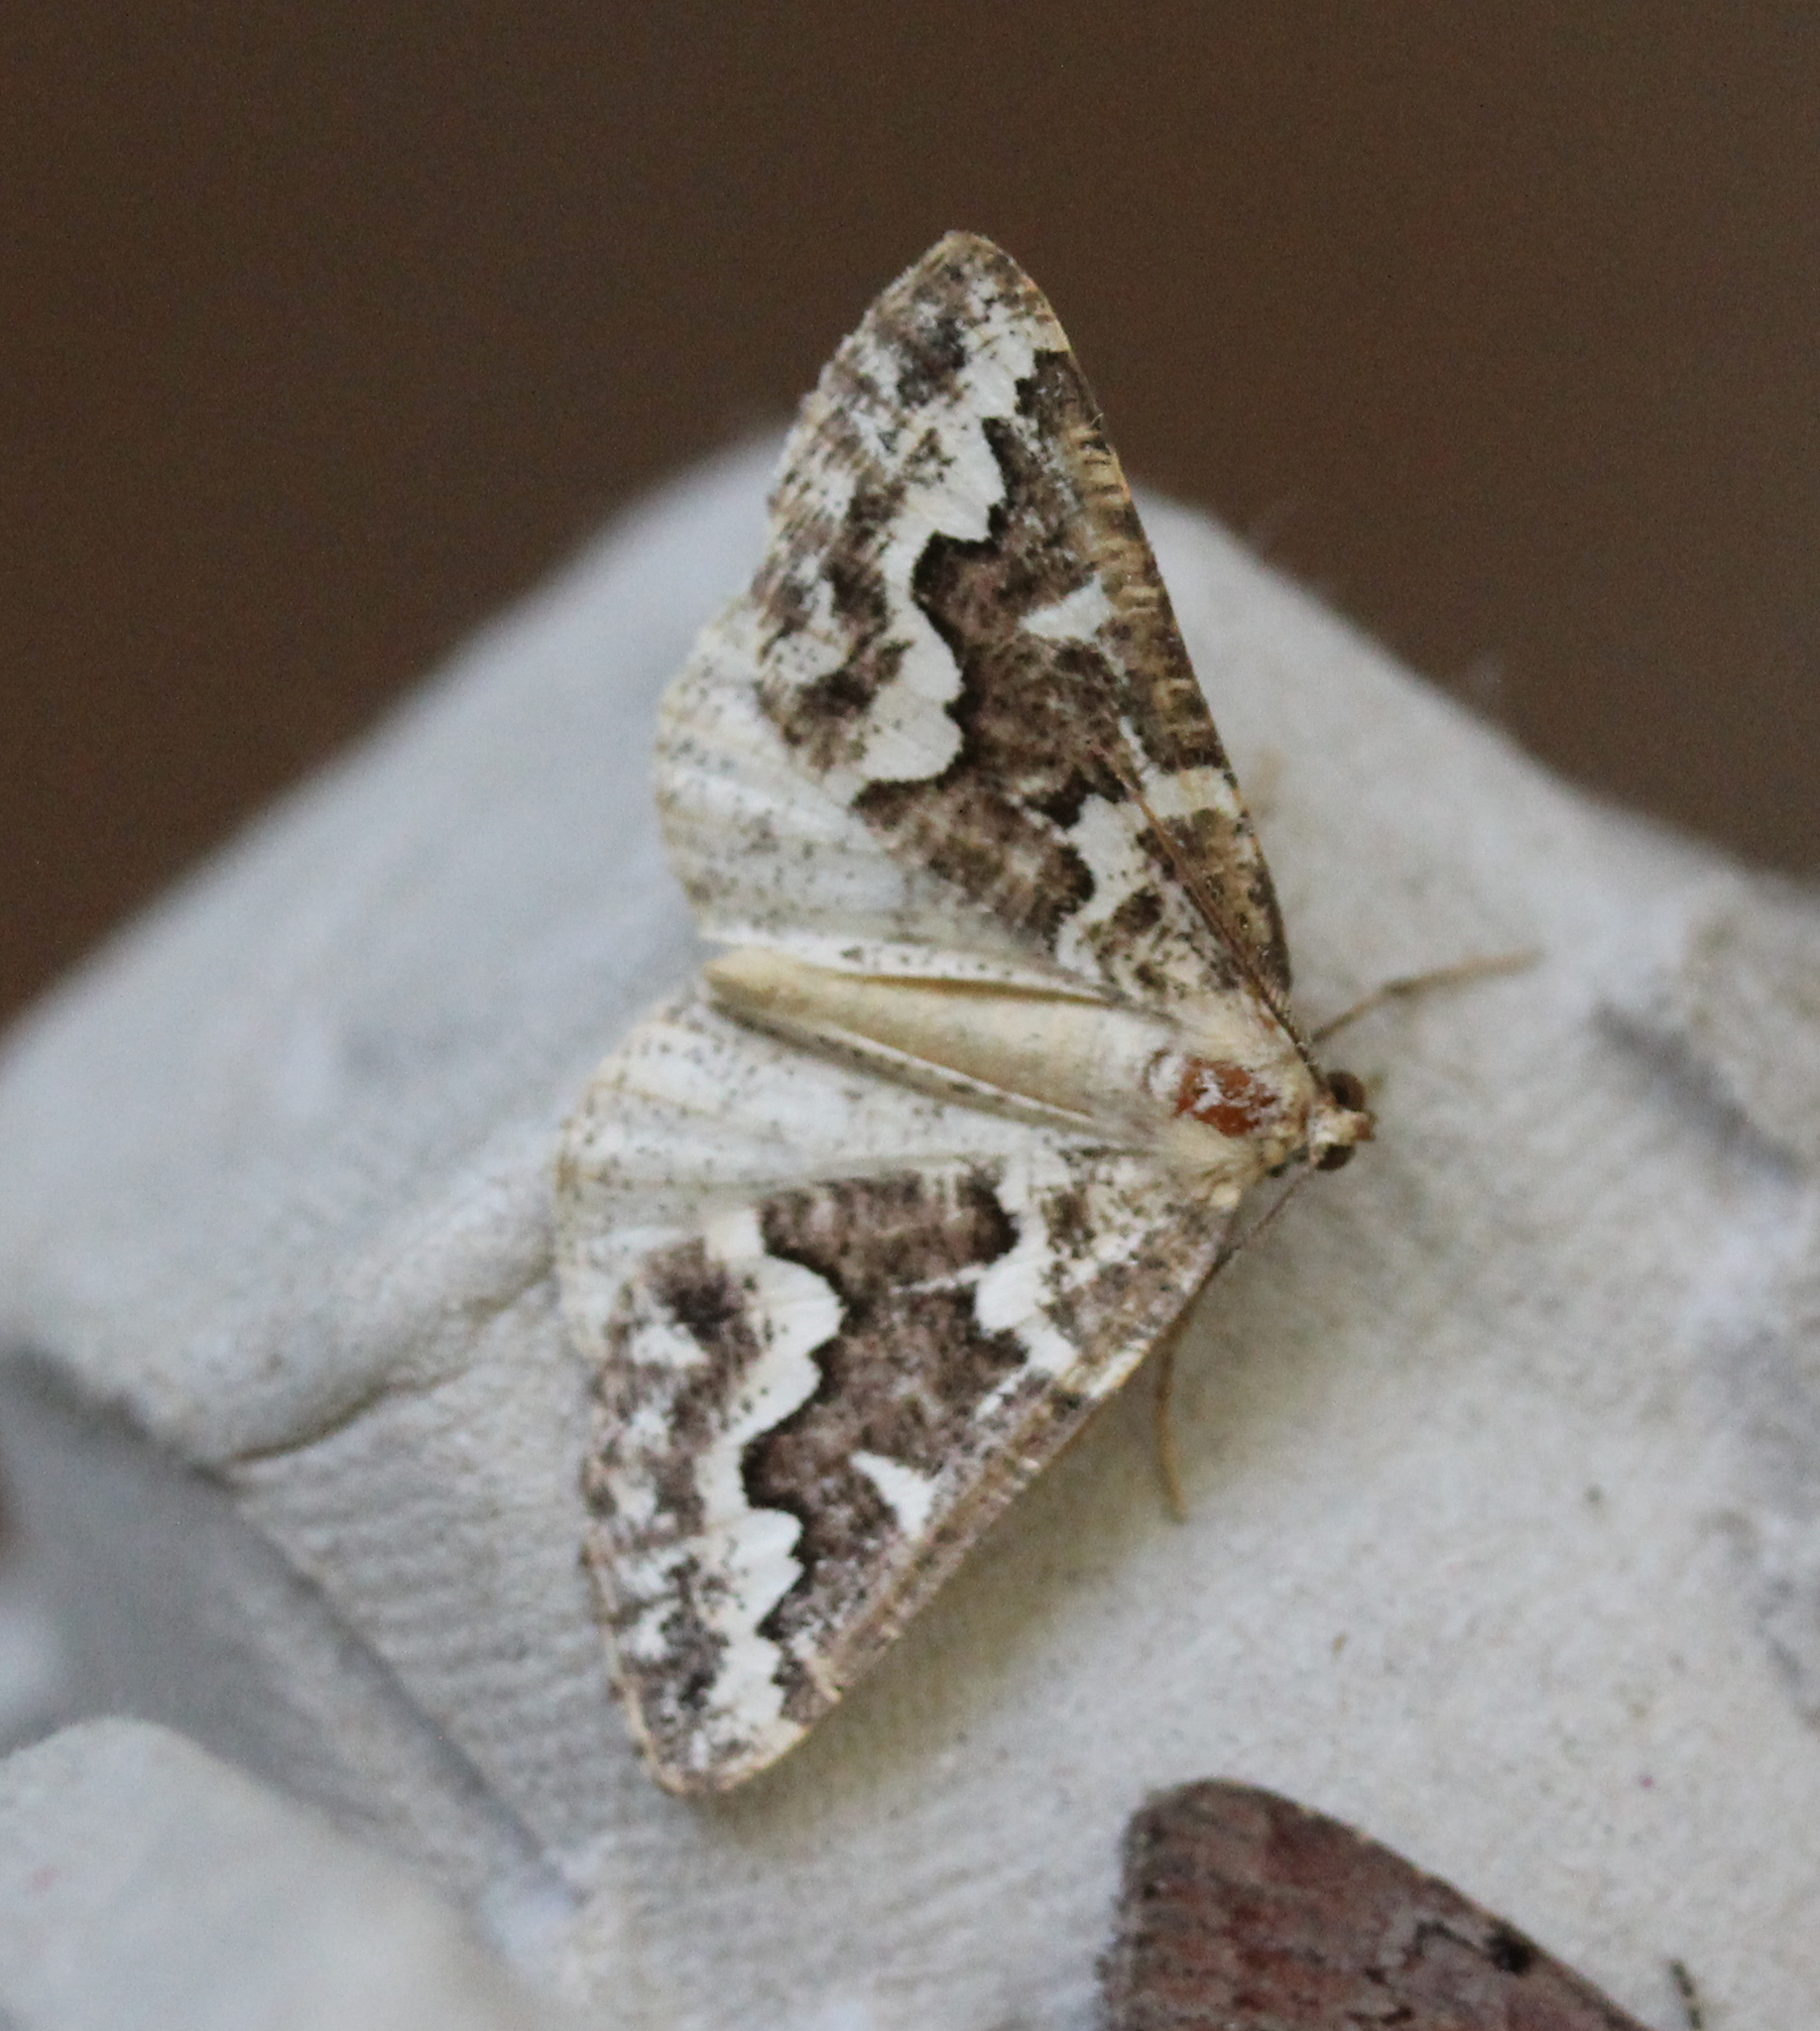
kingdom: Animalia
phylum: Arthropoda
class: Insecta
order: Lepidoptera
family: Geometridae
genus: Caripeta
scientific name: Caripeta divisata
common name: Gray spruce looper
